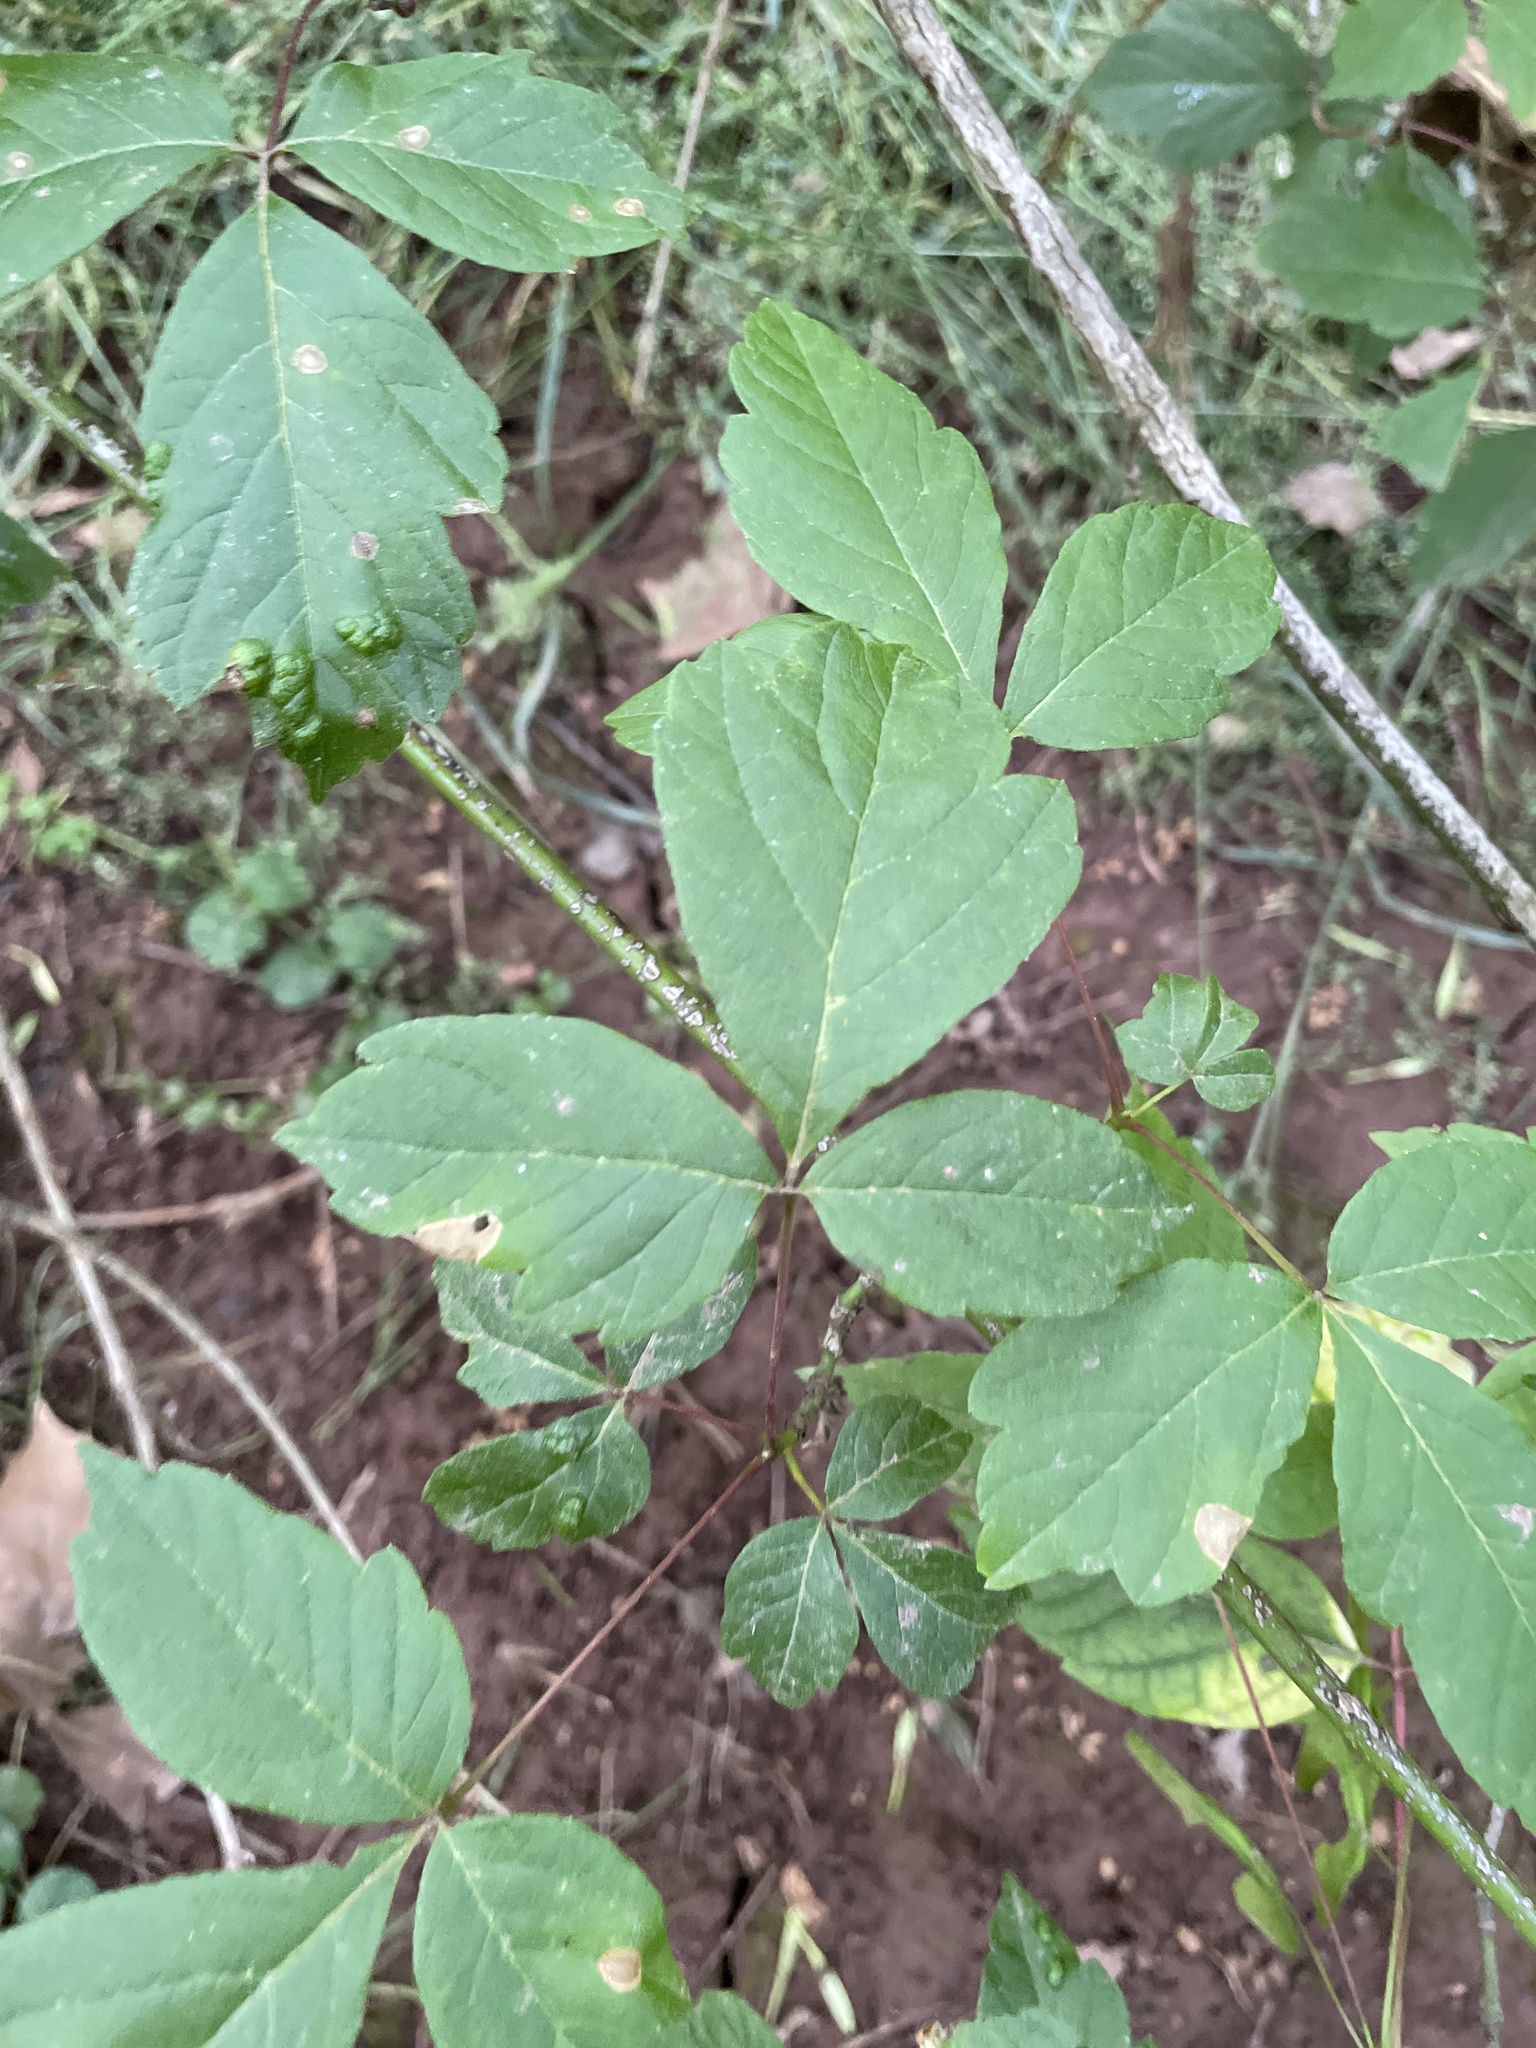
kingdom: Plantae
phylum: Tracheophyta
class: Magnoliopsida
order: Sapindales
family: Sapindaceae
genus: Acer
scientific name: Acer negundo
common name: Ashleaf maple
